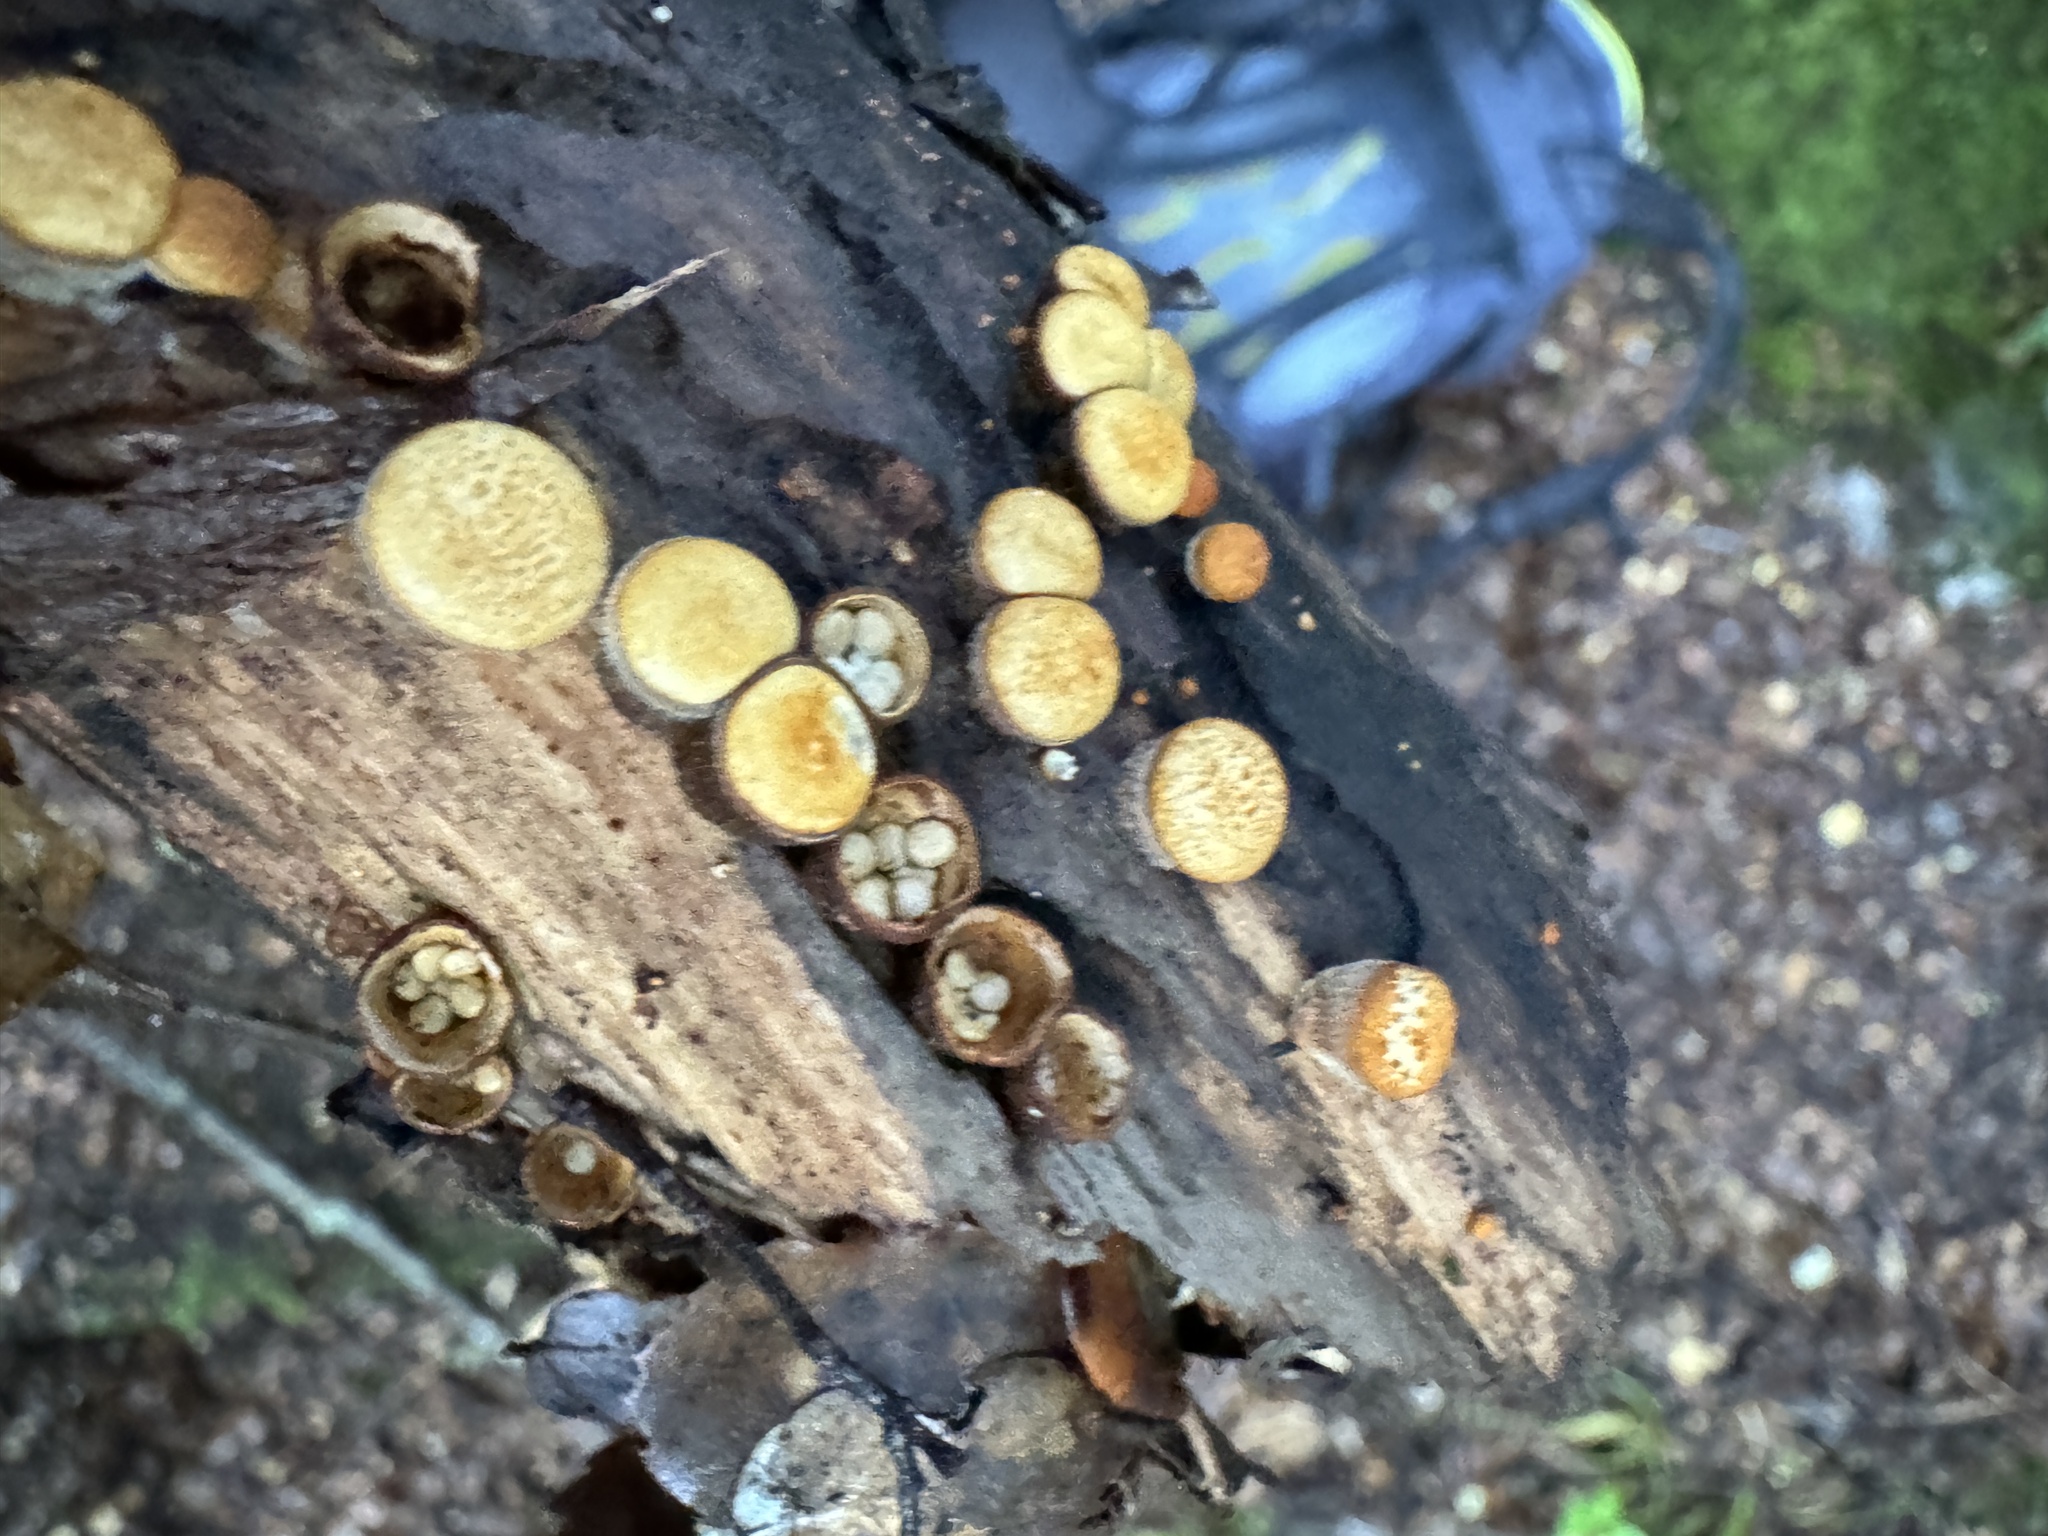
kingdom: Fungi
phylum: Basidiomycota
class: Agaricomycetes
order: Agaricales
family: Nidulariaceae
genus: Crucibulum
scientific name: Crucibulum simile
